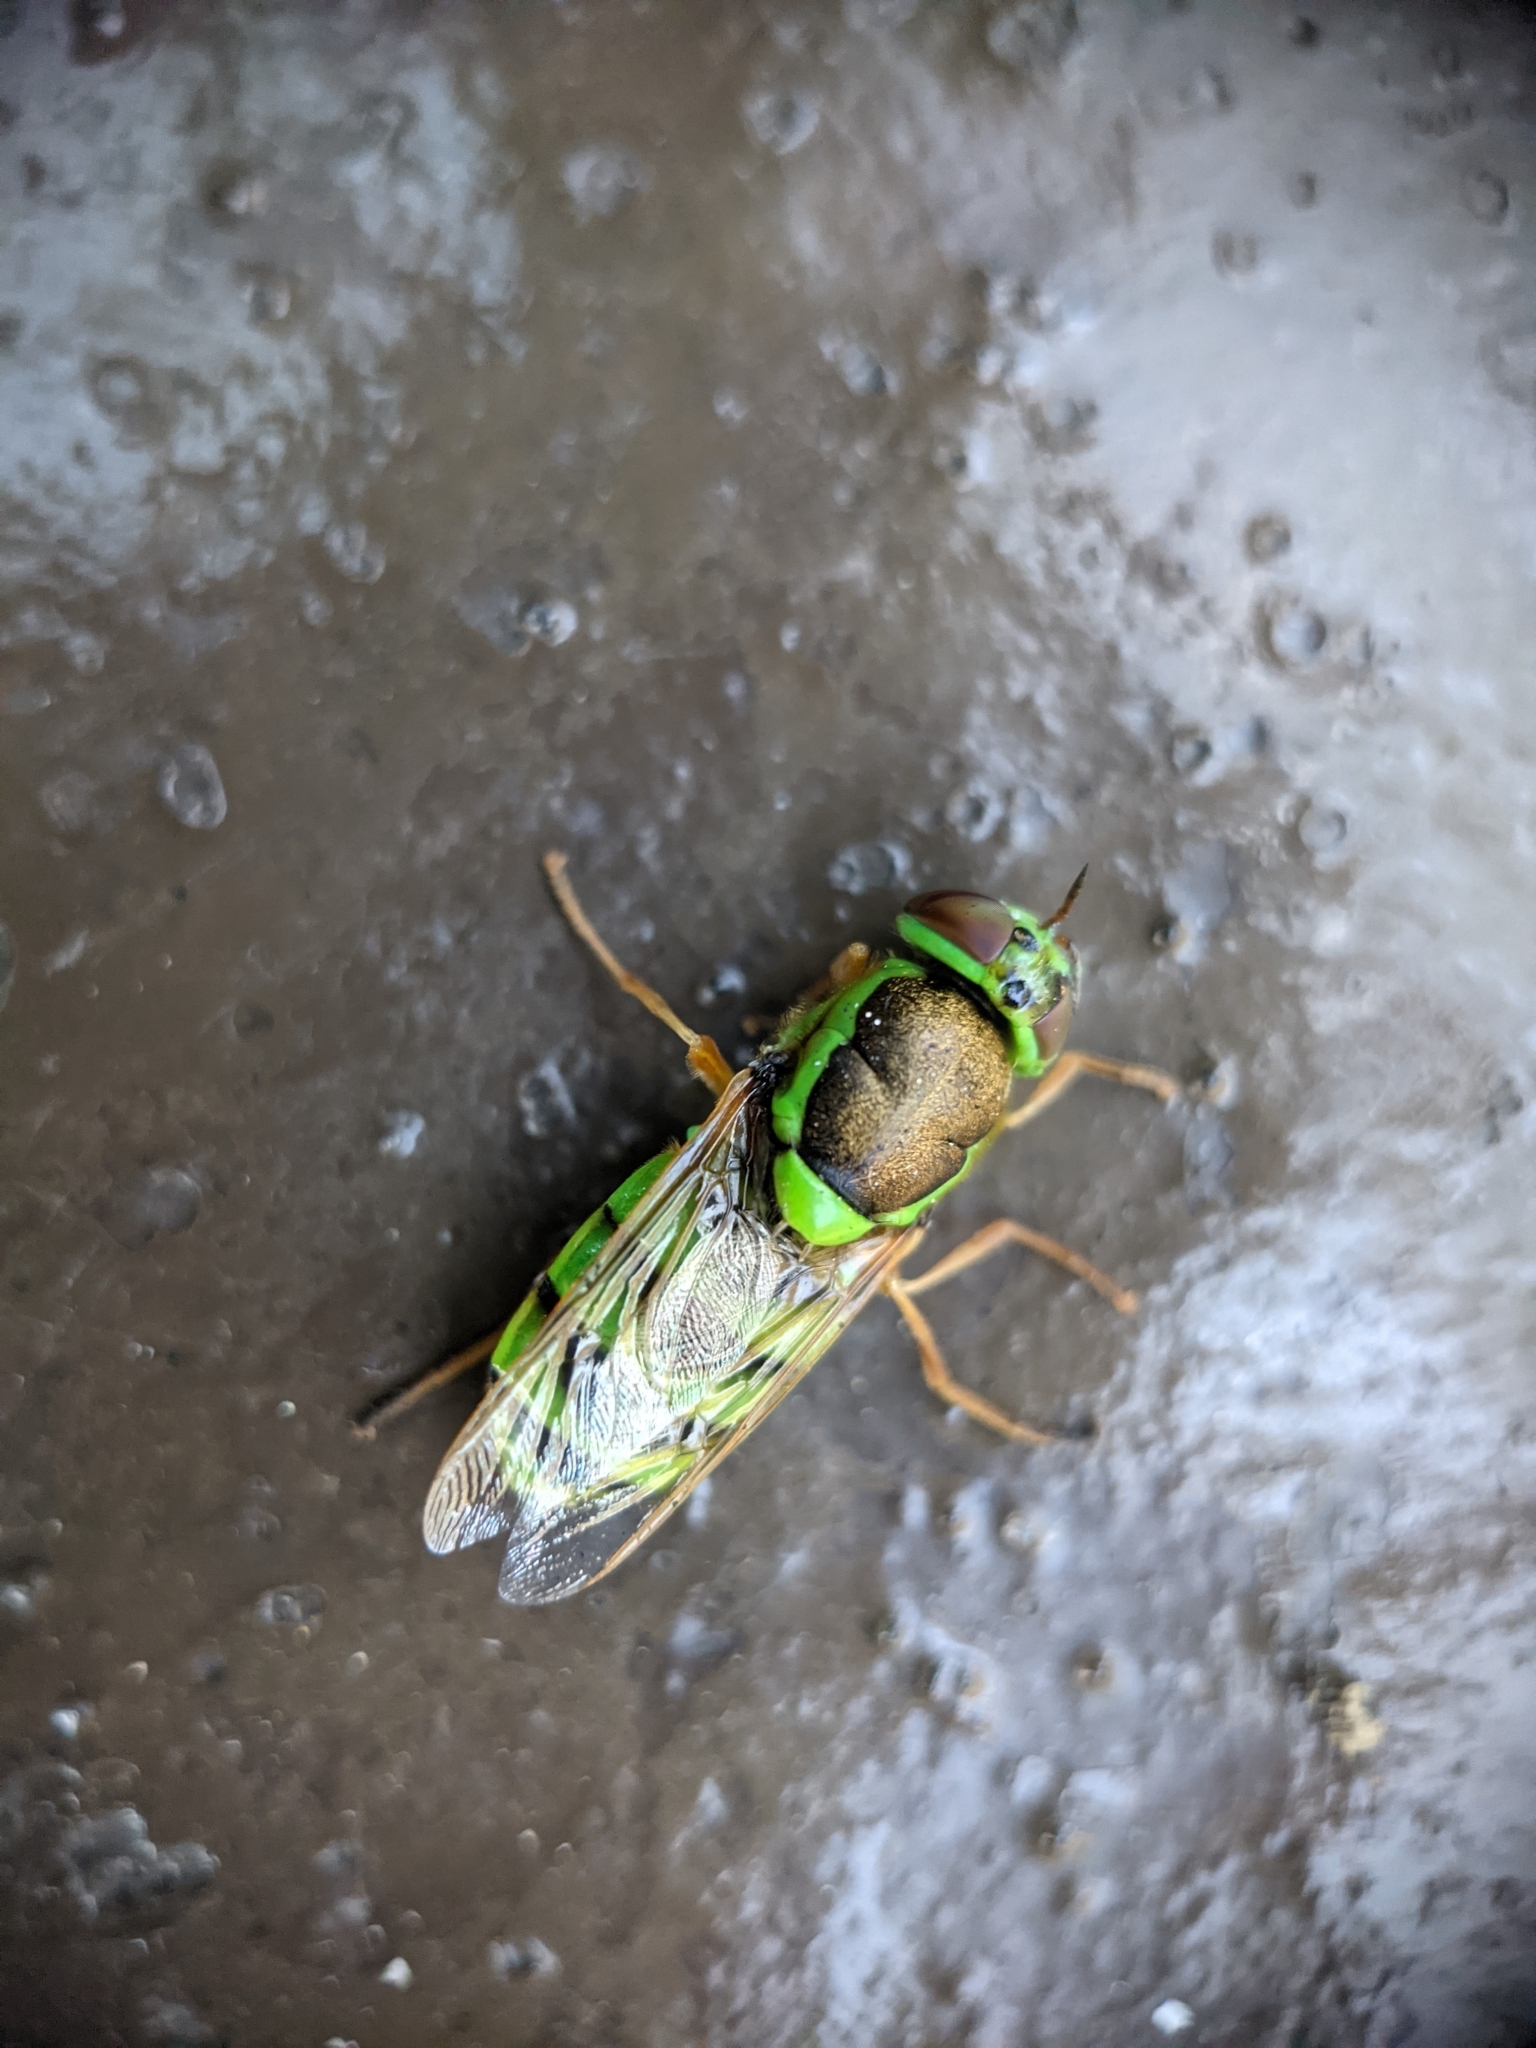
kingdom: Animalia
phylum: Arthropoda
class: Insecta
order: Diptera
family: Stratiomyidae
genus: Odontomyia
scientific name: Odontomyia cincta
